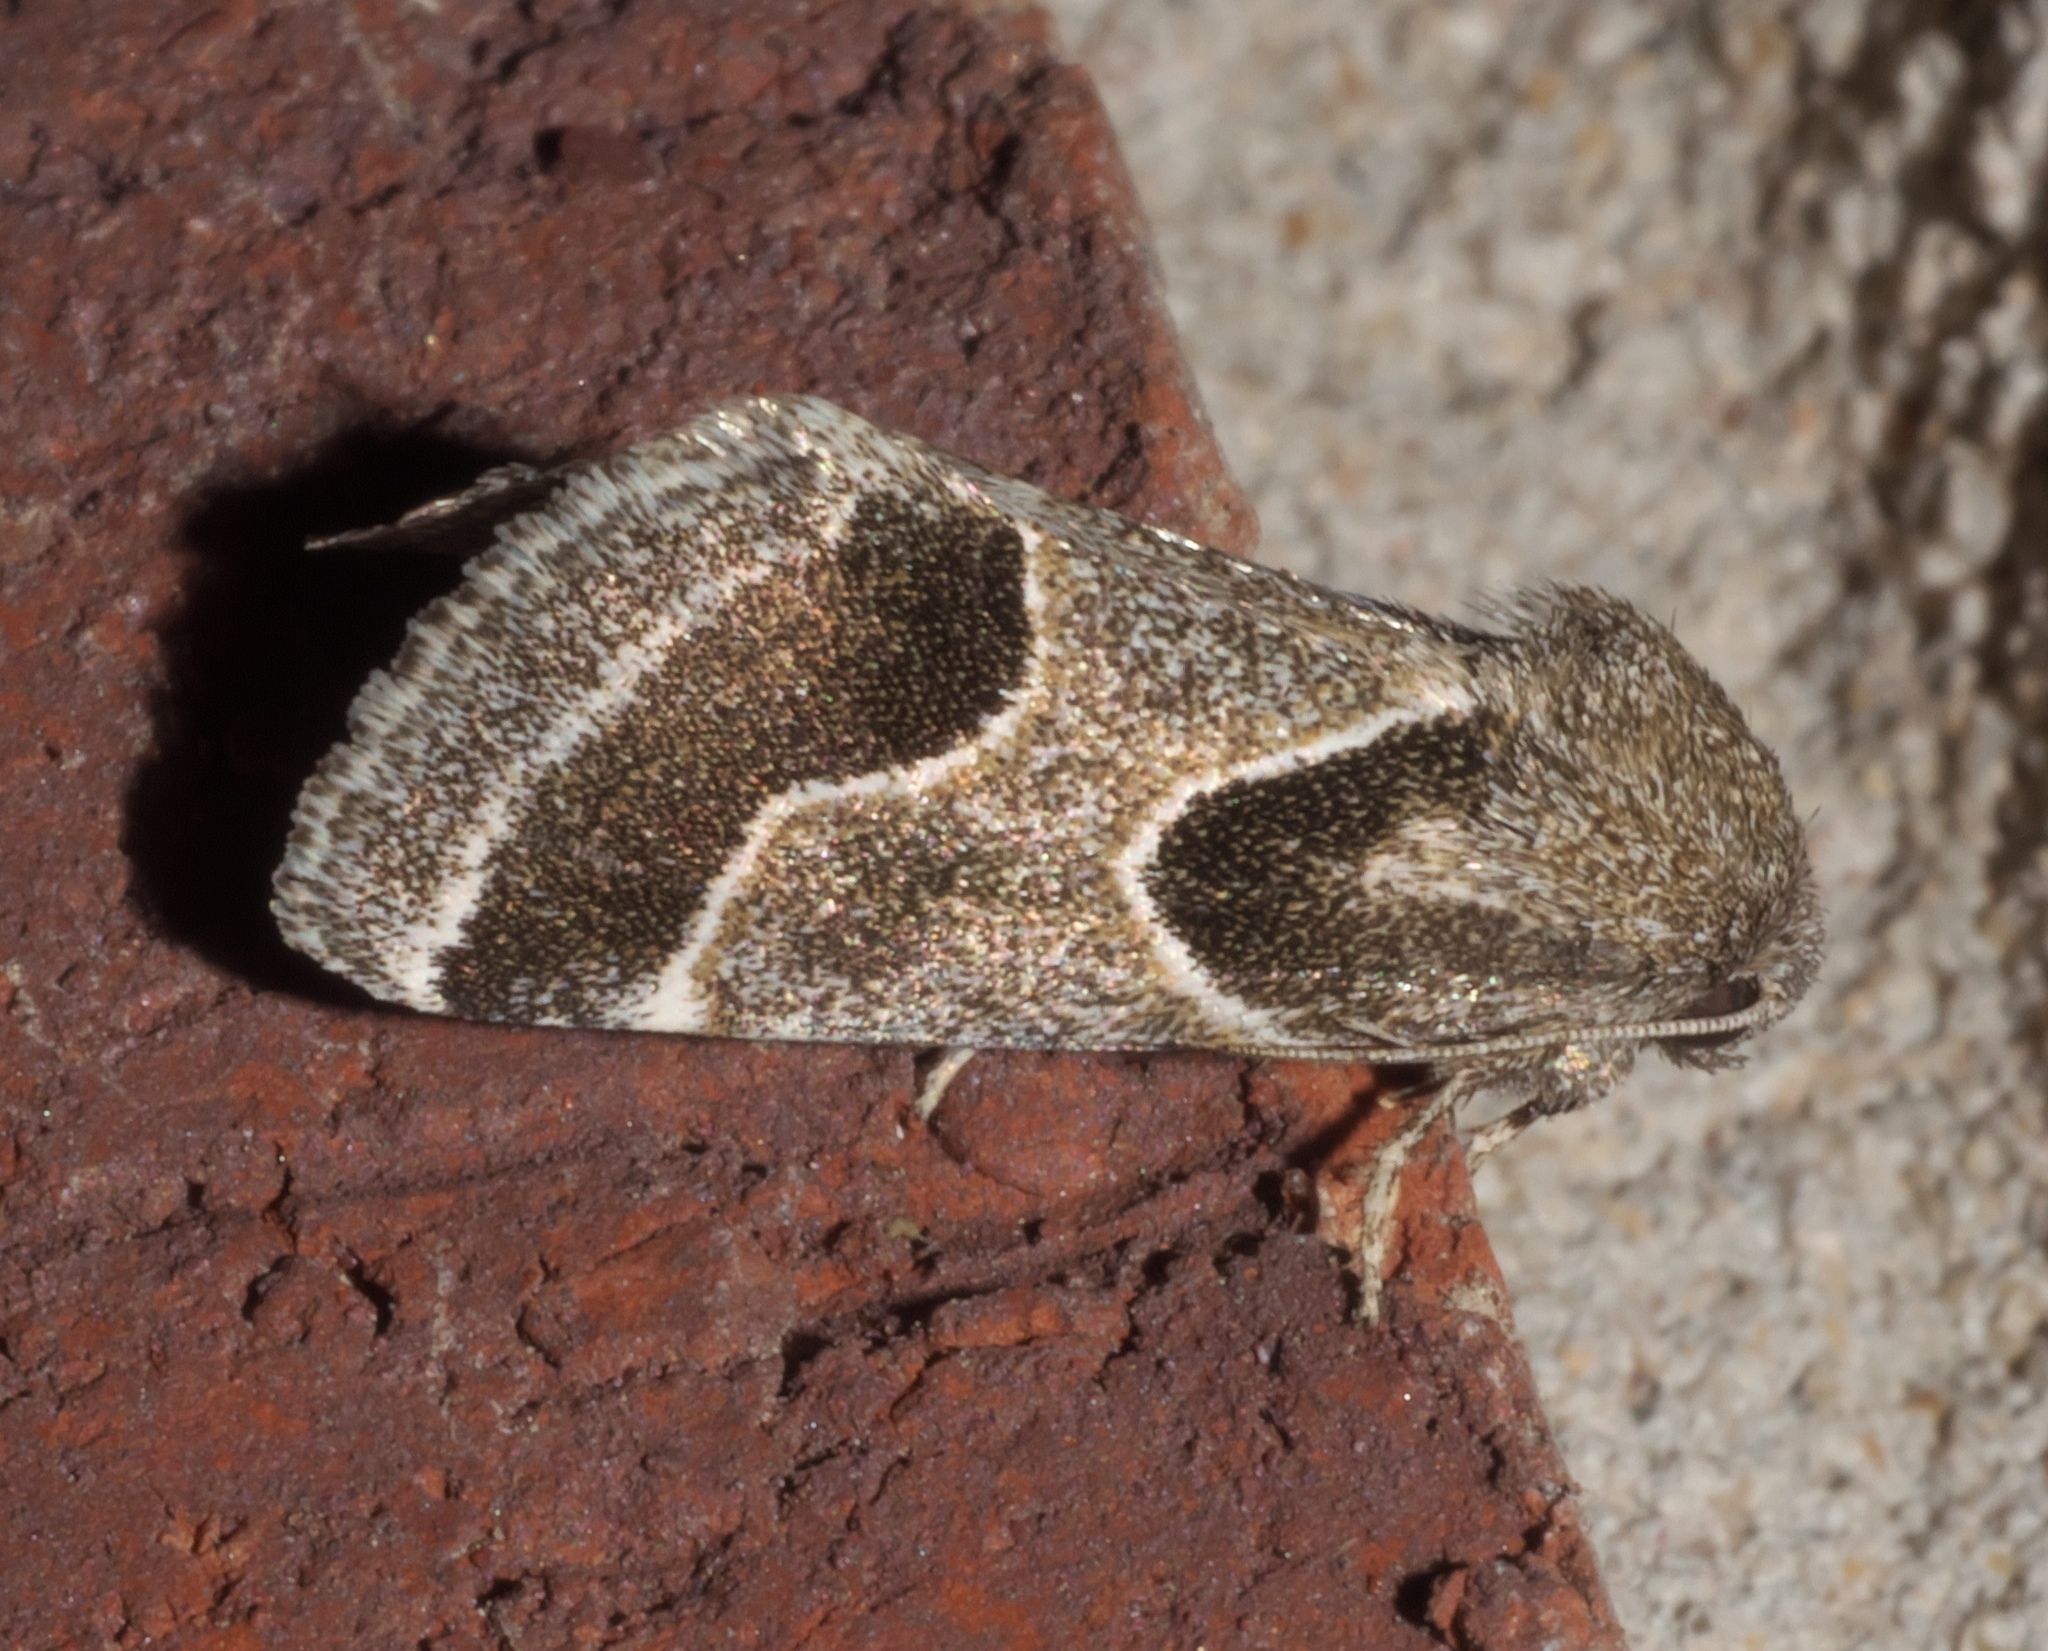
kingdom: Animalia
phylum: Arthropoda
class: Insecta
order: Lepidoptera
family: Noctuidae
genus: Schinia
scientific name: Schinia rivulosa
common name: Scarce meal-moth
